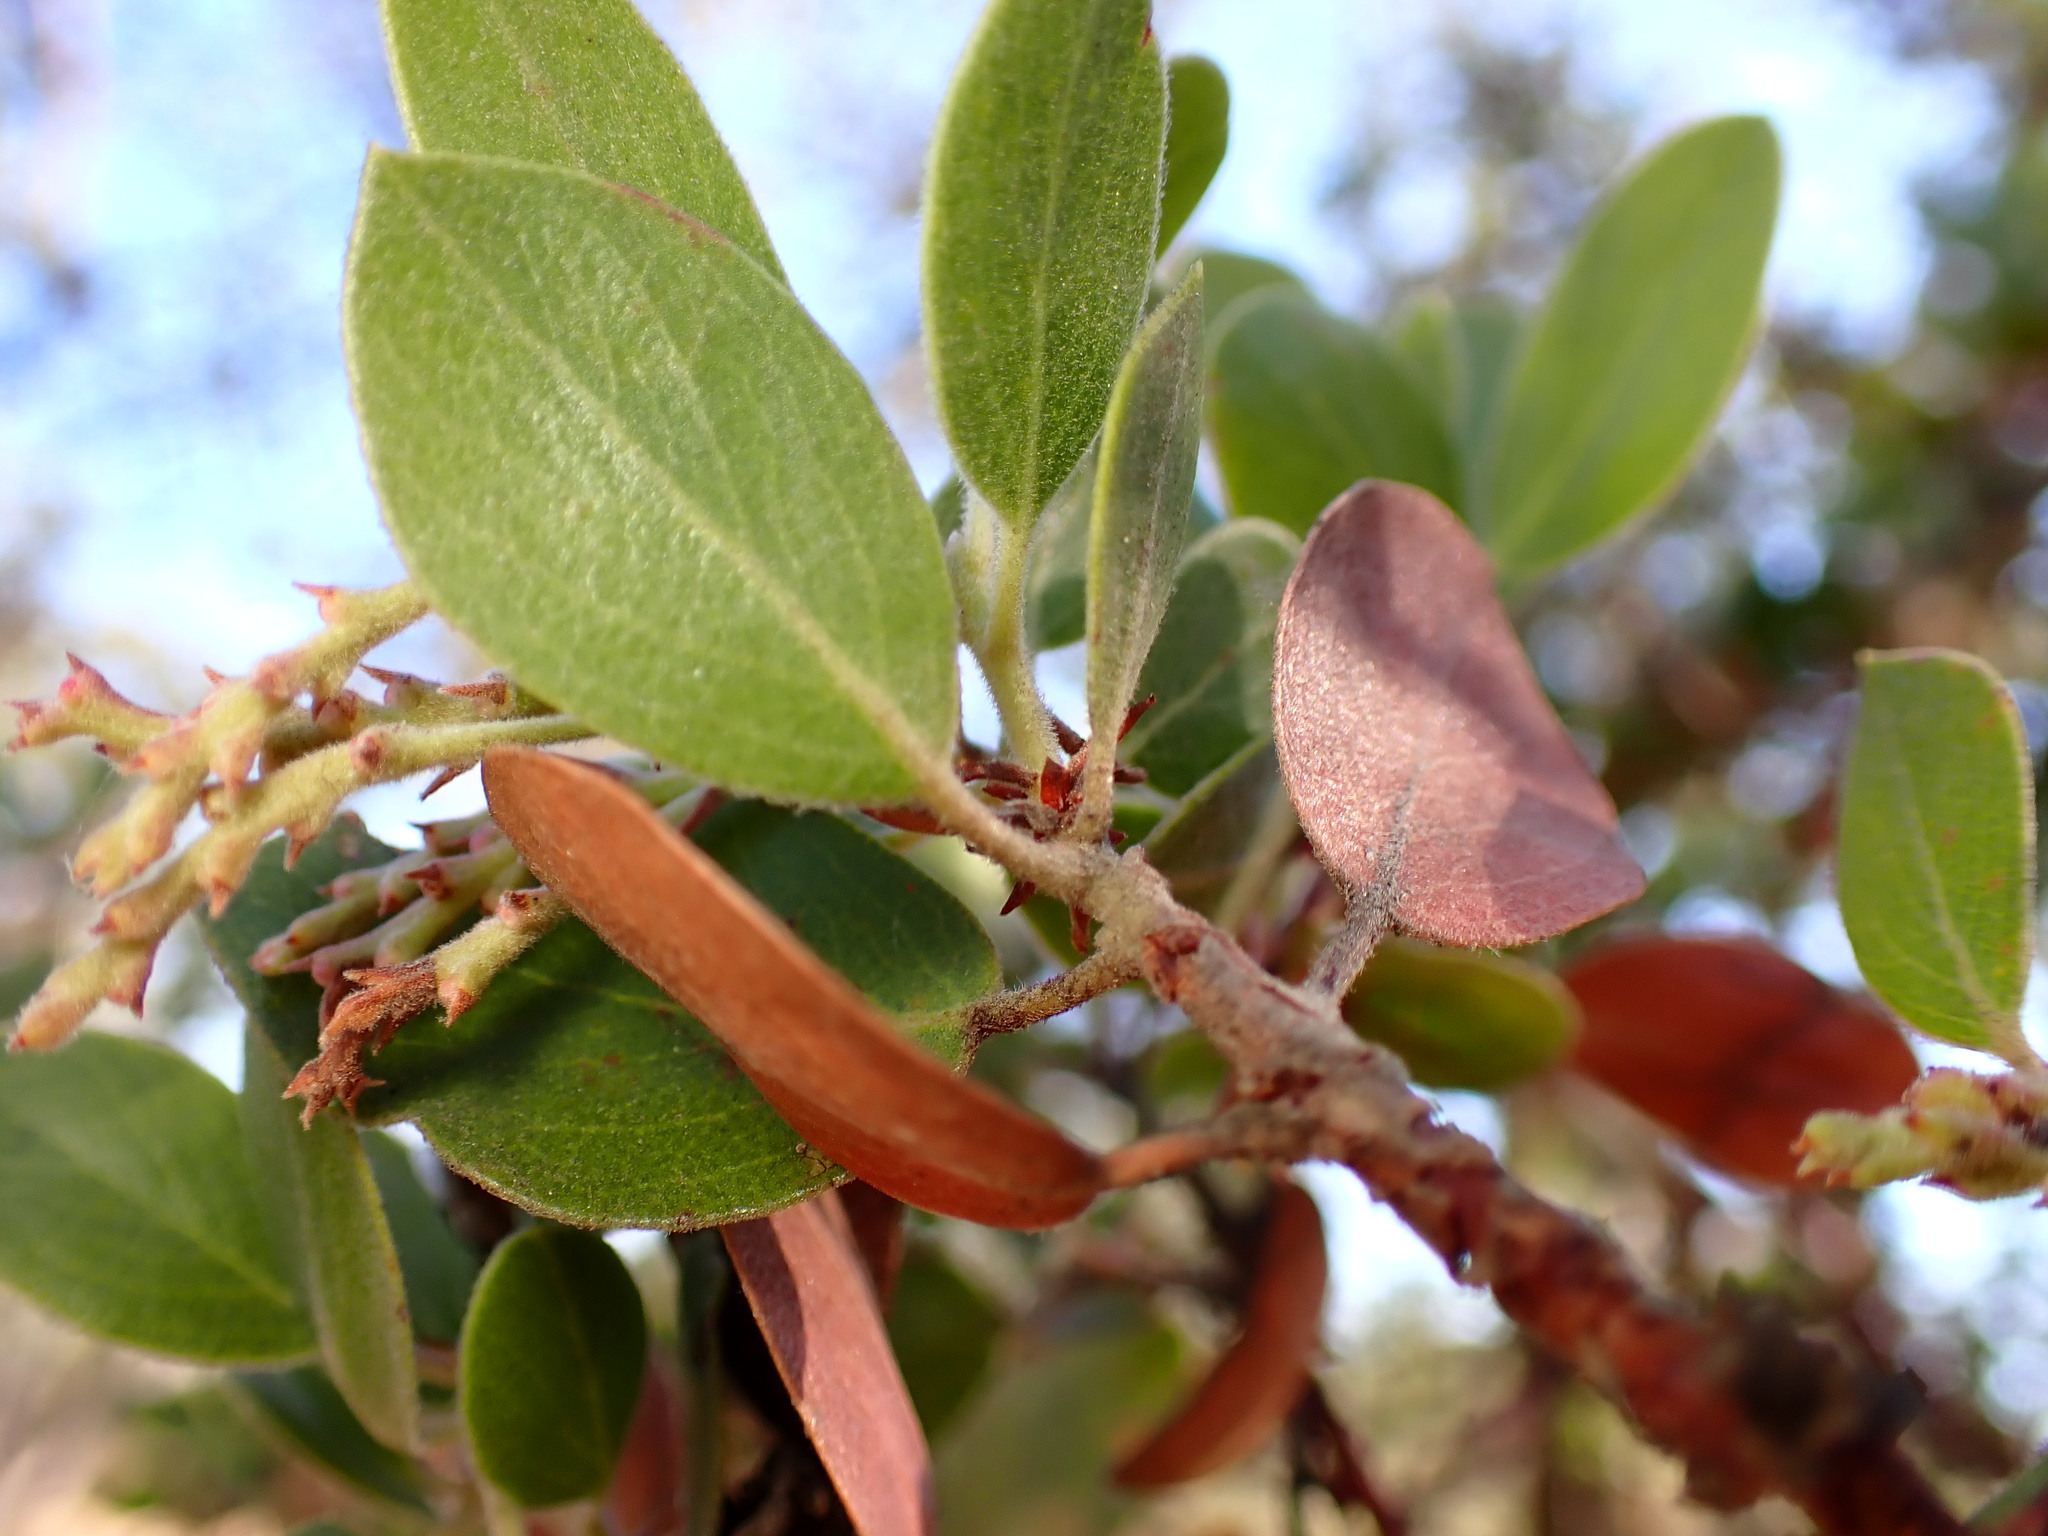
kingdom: Plantae
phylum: Tracheophyta
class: Magnoliopsida
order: Ericales
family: Ericaceae
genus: Arctostaphylos
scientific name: Arctostaphylos manzanita
